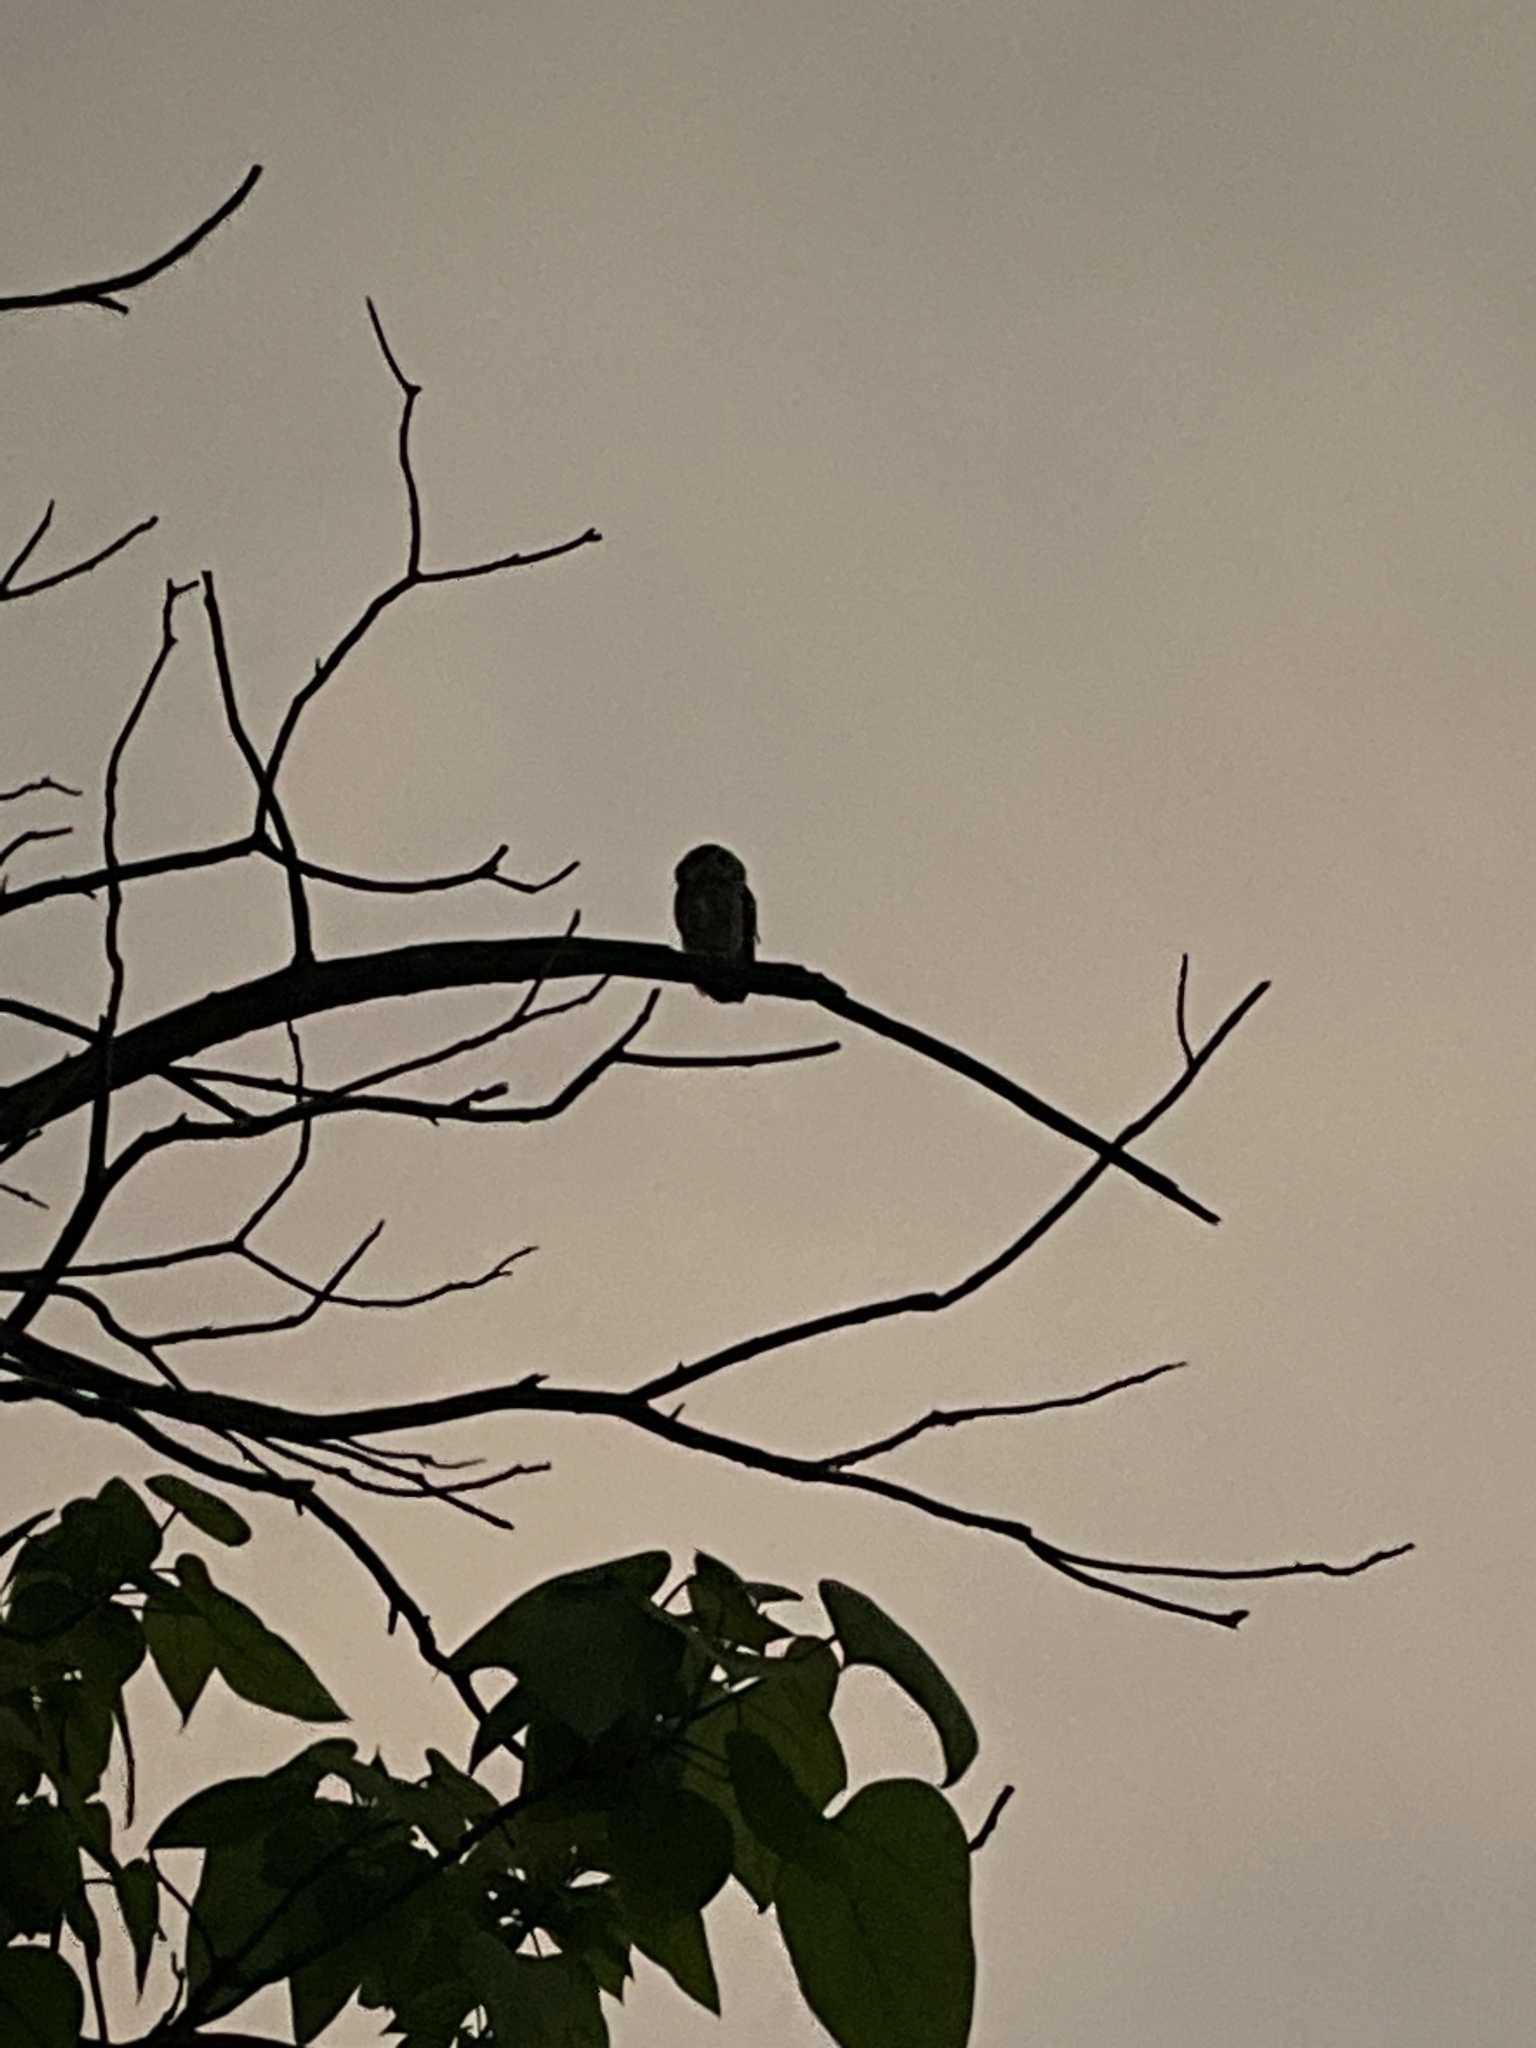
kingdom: Animalia
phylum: Chordata
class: Aves
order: Strigiformes
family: Strigidae
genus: Megascops
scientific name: Megascops asio
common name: Eastern screech-owl
